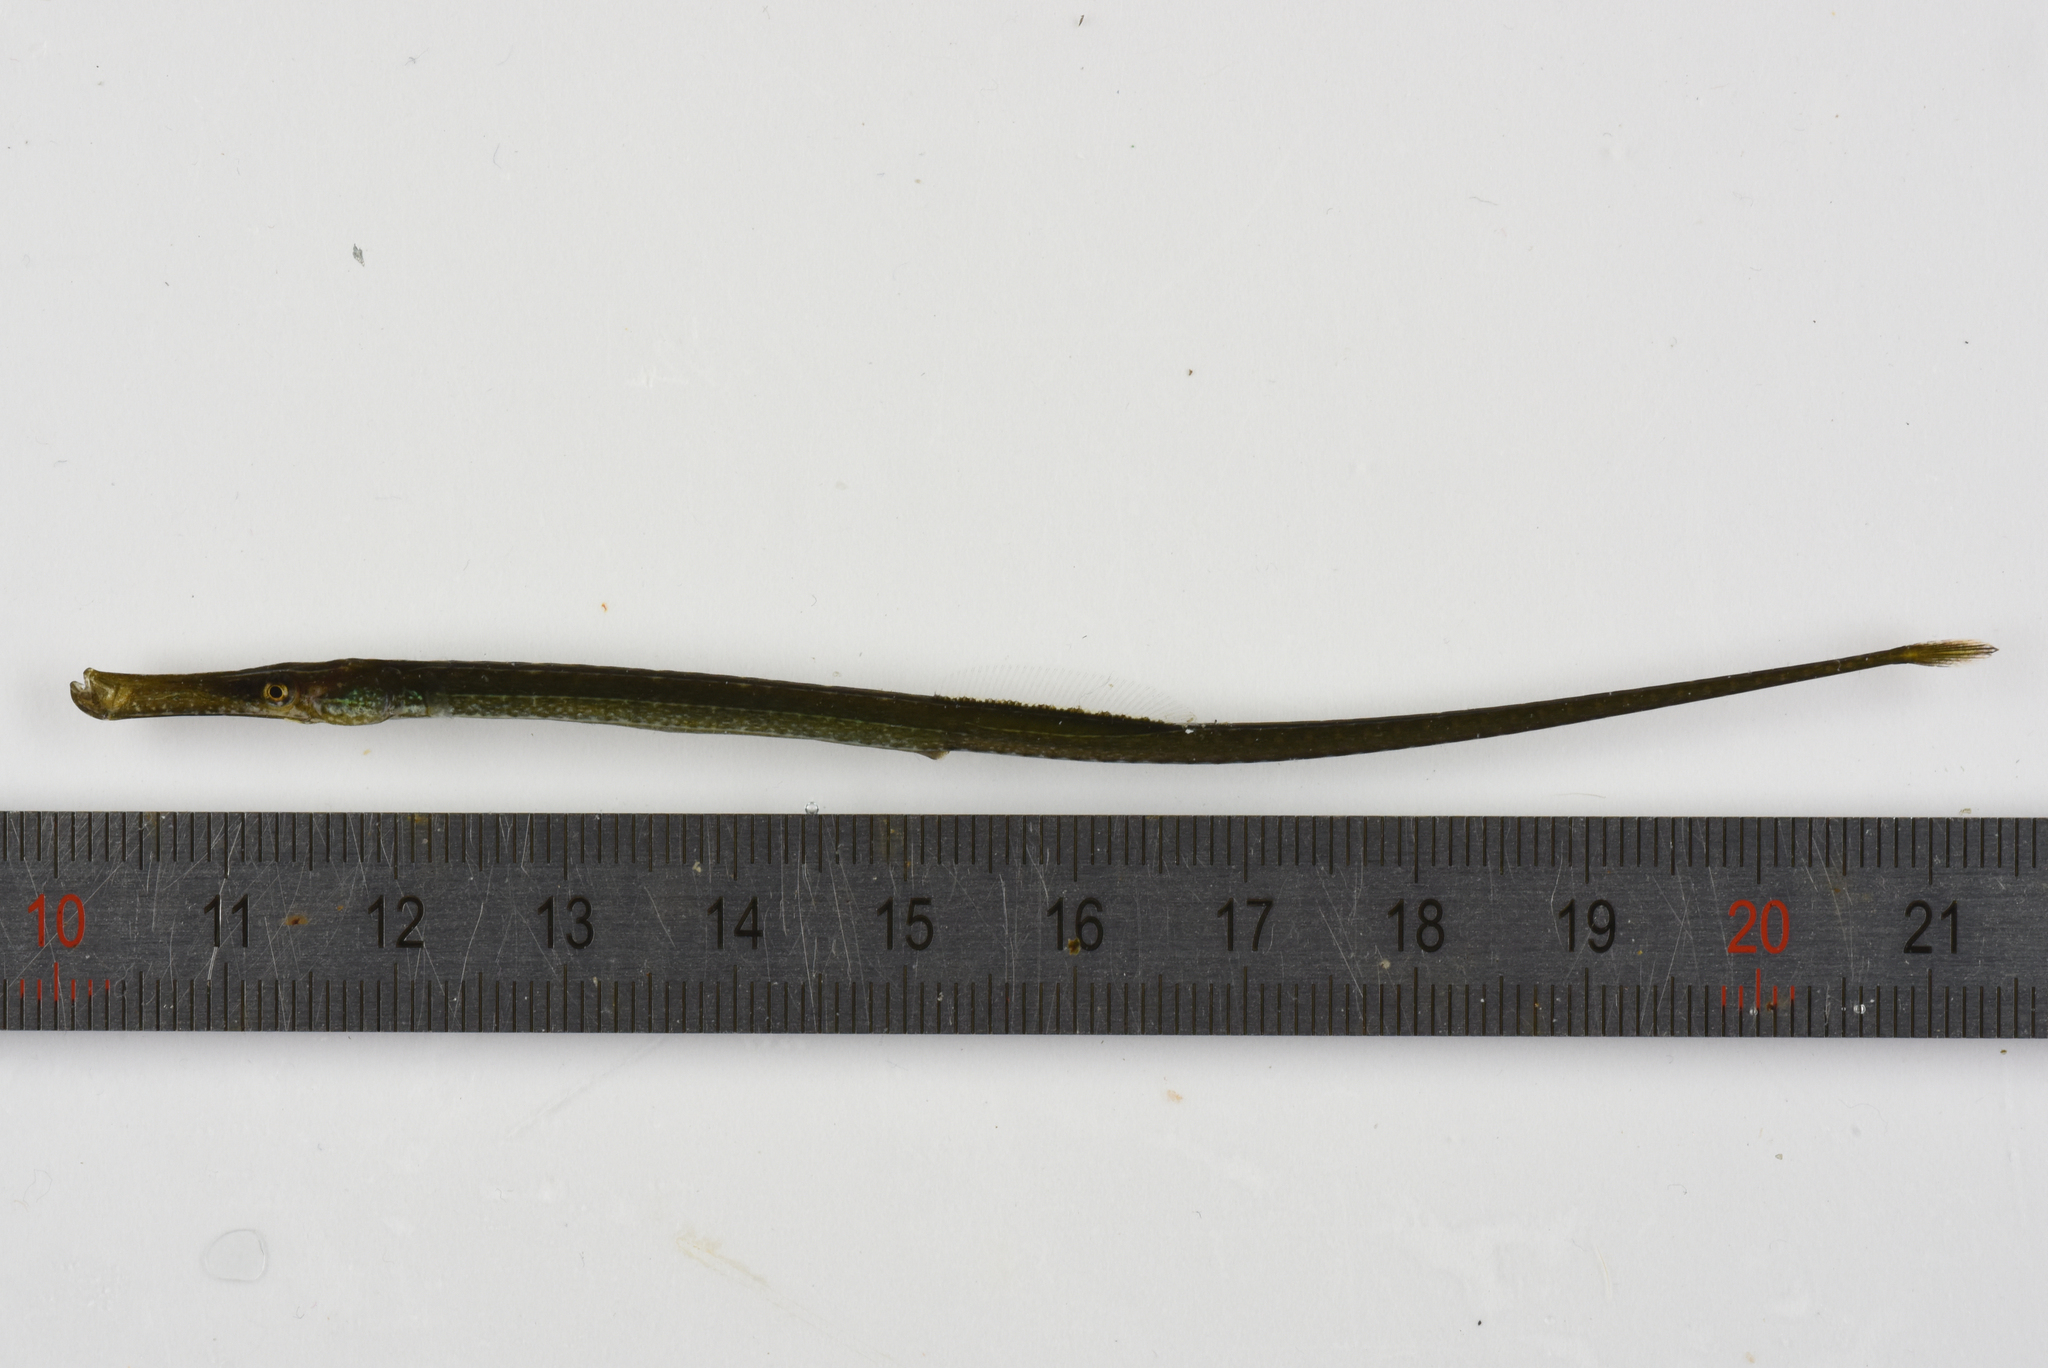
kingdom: Animalia
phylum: Chordata
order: Syngnathiformes
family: Syngnathidae
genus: Syngnathus
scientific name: Syngnathus typhle
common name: Deep-snouted pipefish
